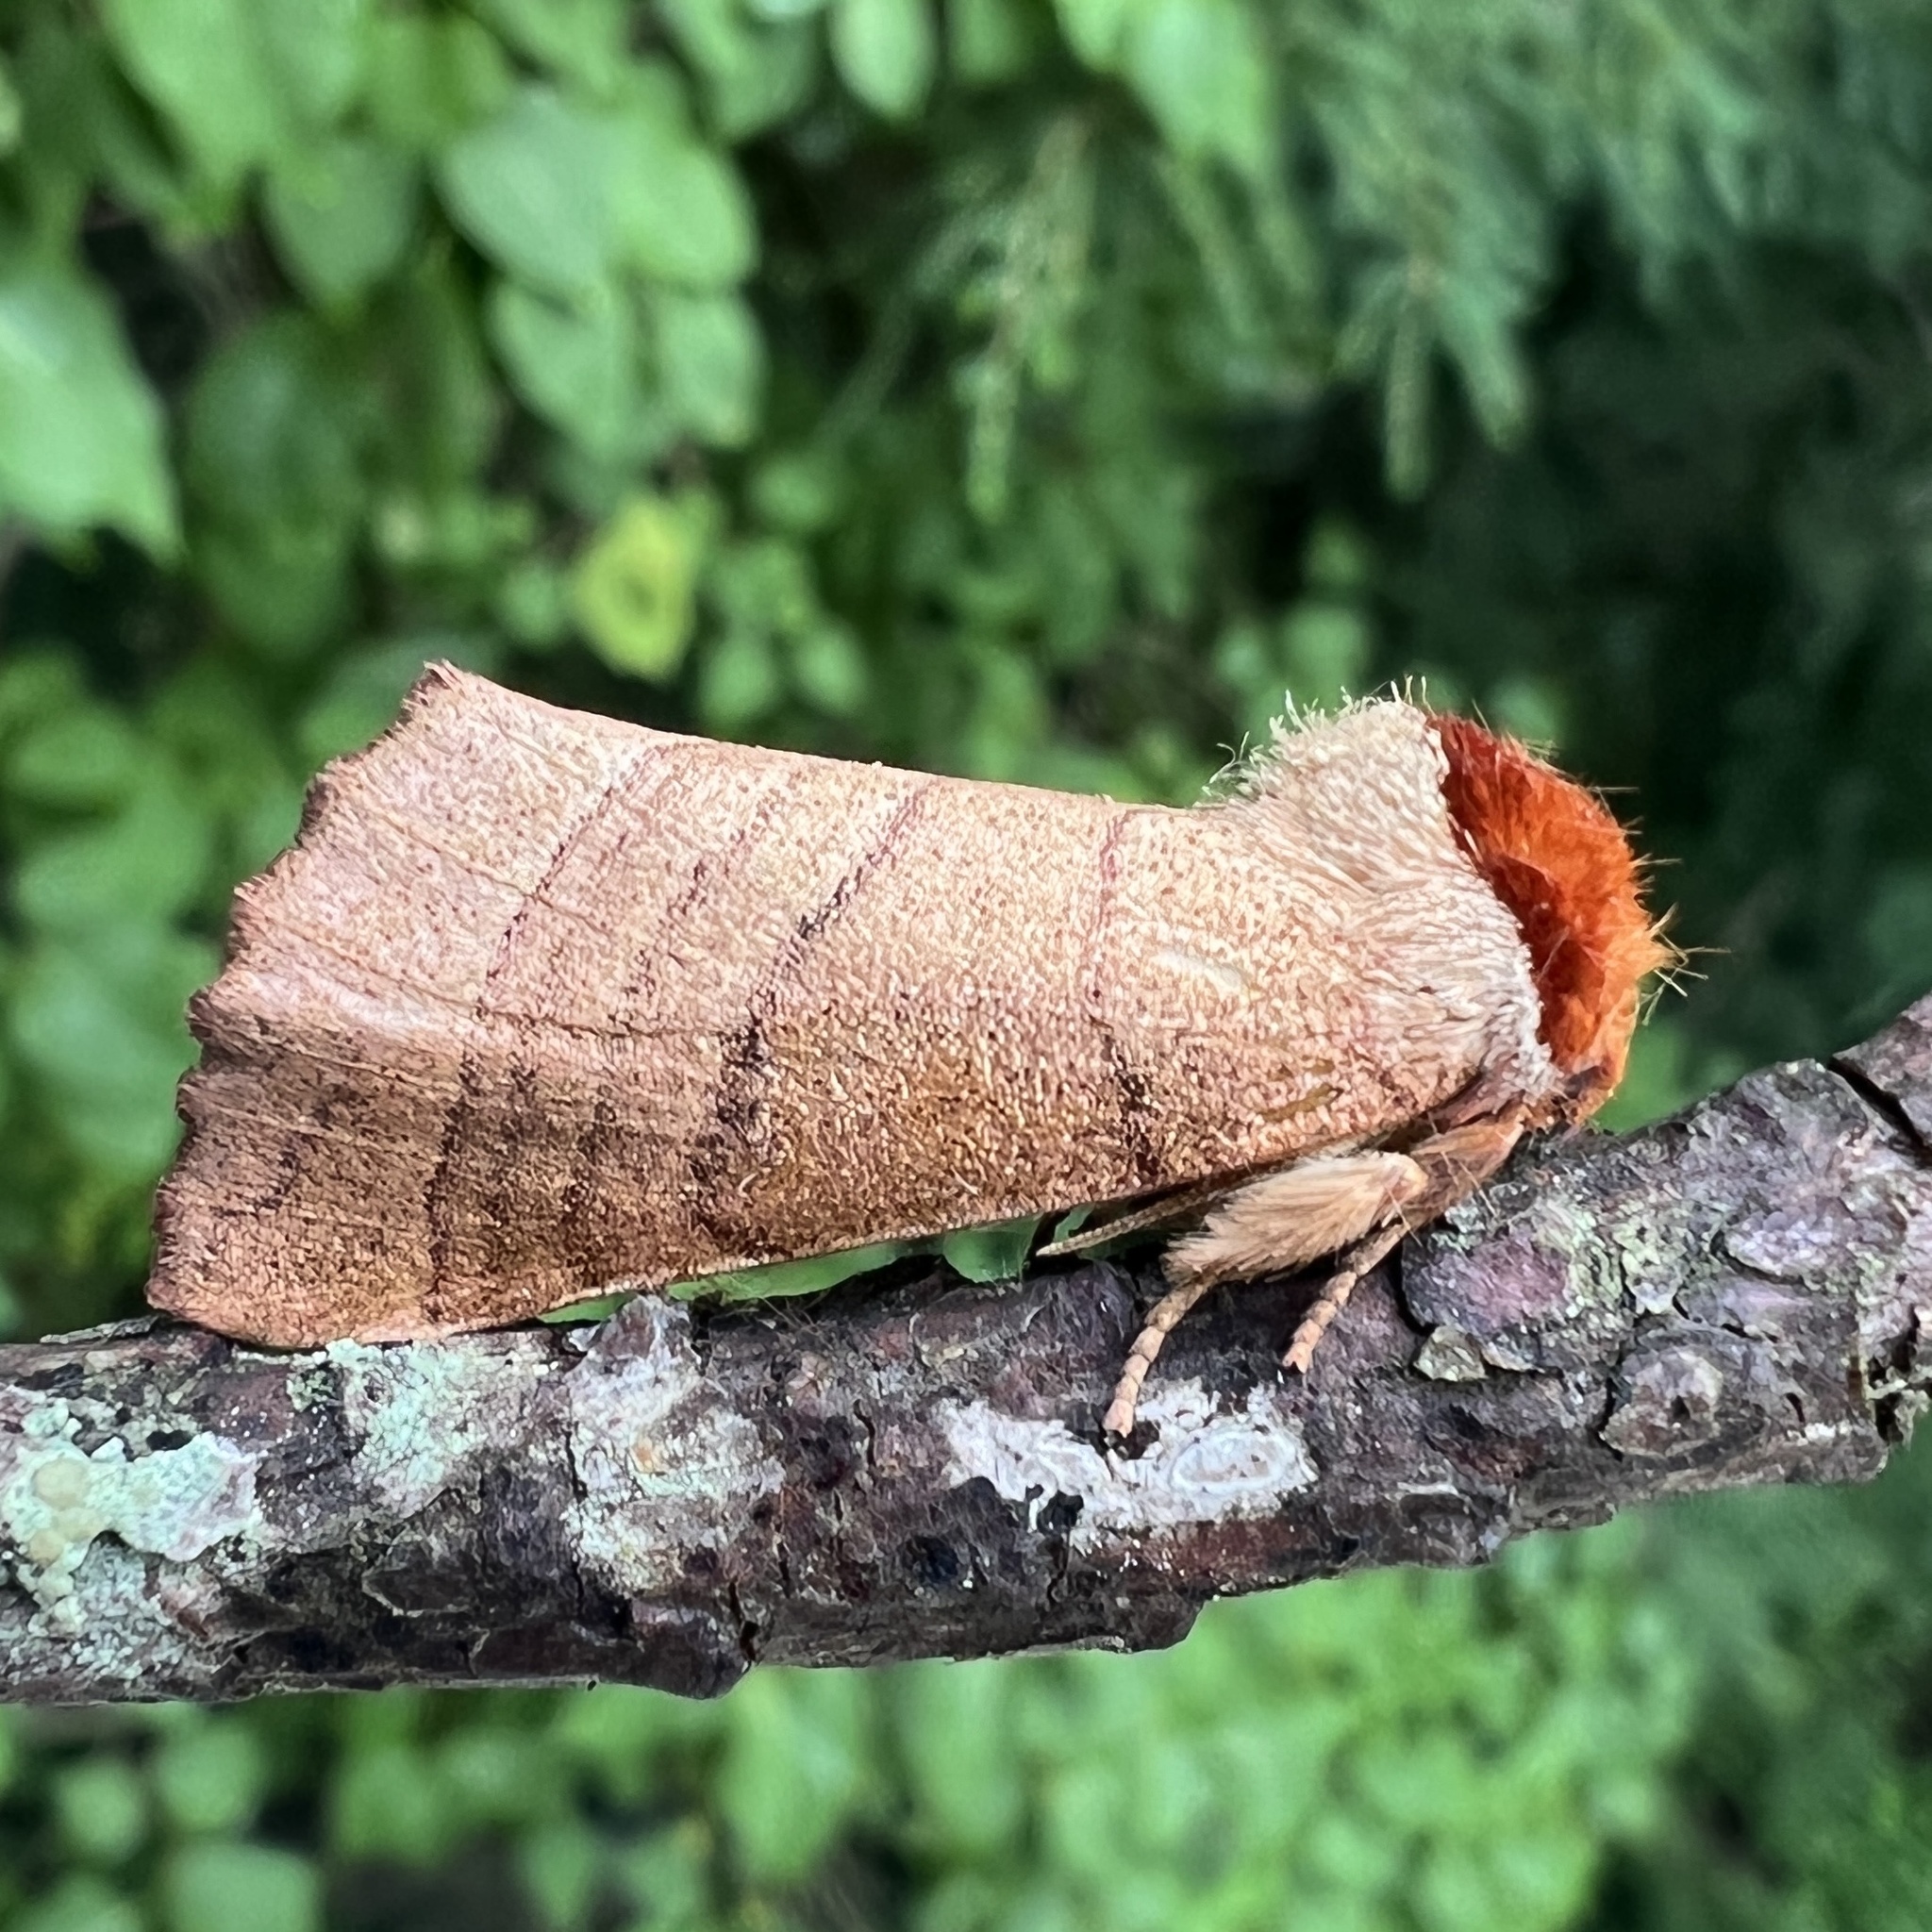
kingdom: Animalia
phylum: Arthropoda
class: Insecta
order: Lepidoptera
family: Notodontidae
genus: Datana
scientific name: Datana ministra
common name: Yellow-necked caterpillar moth
